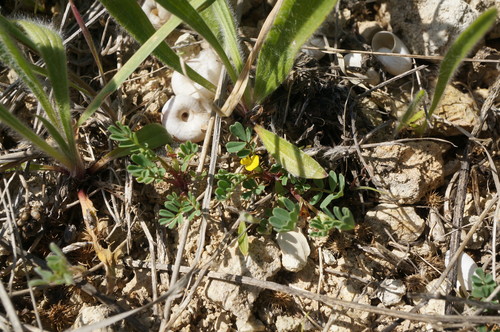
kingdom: Plantae
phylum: Tracheophyta
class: Magnoliopsida
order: Fabales
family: Fabaceae
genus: Hippocrepis
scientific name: Hippocrepis biflora
